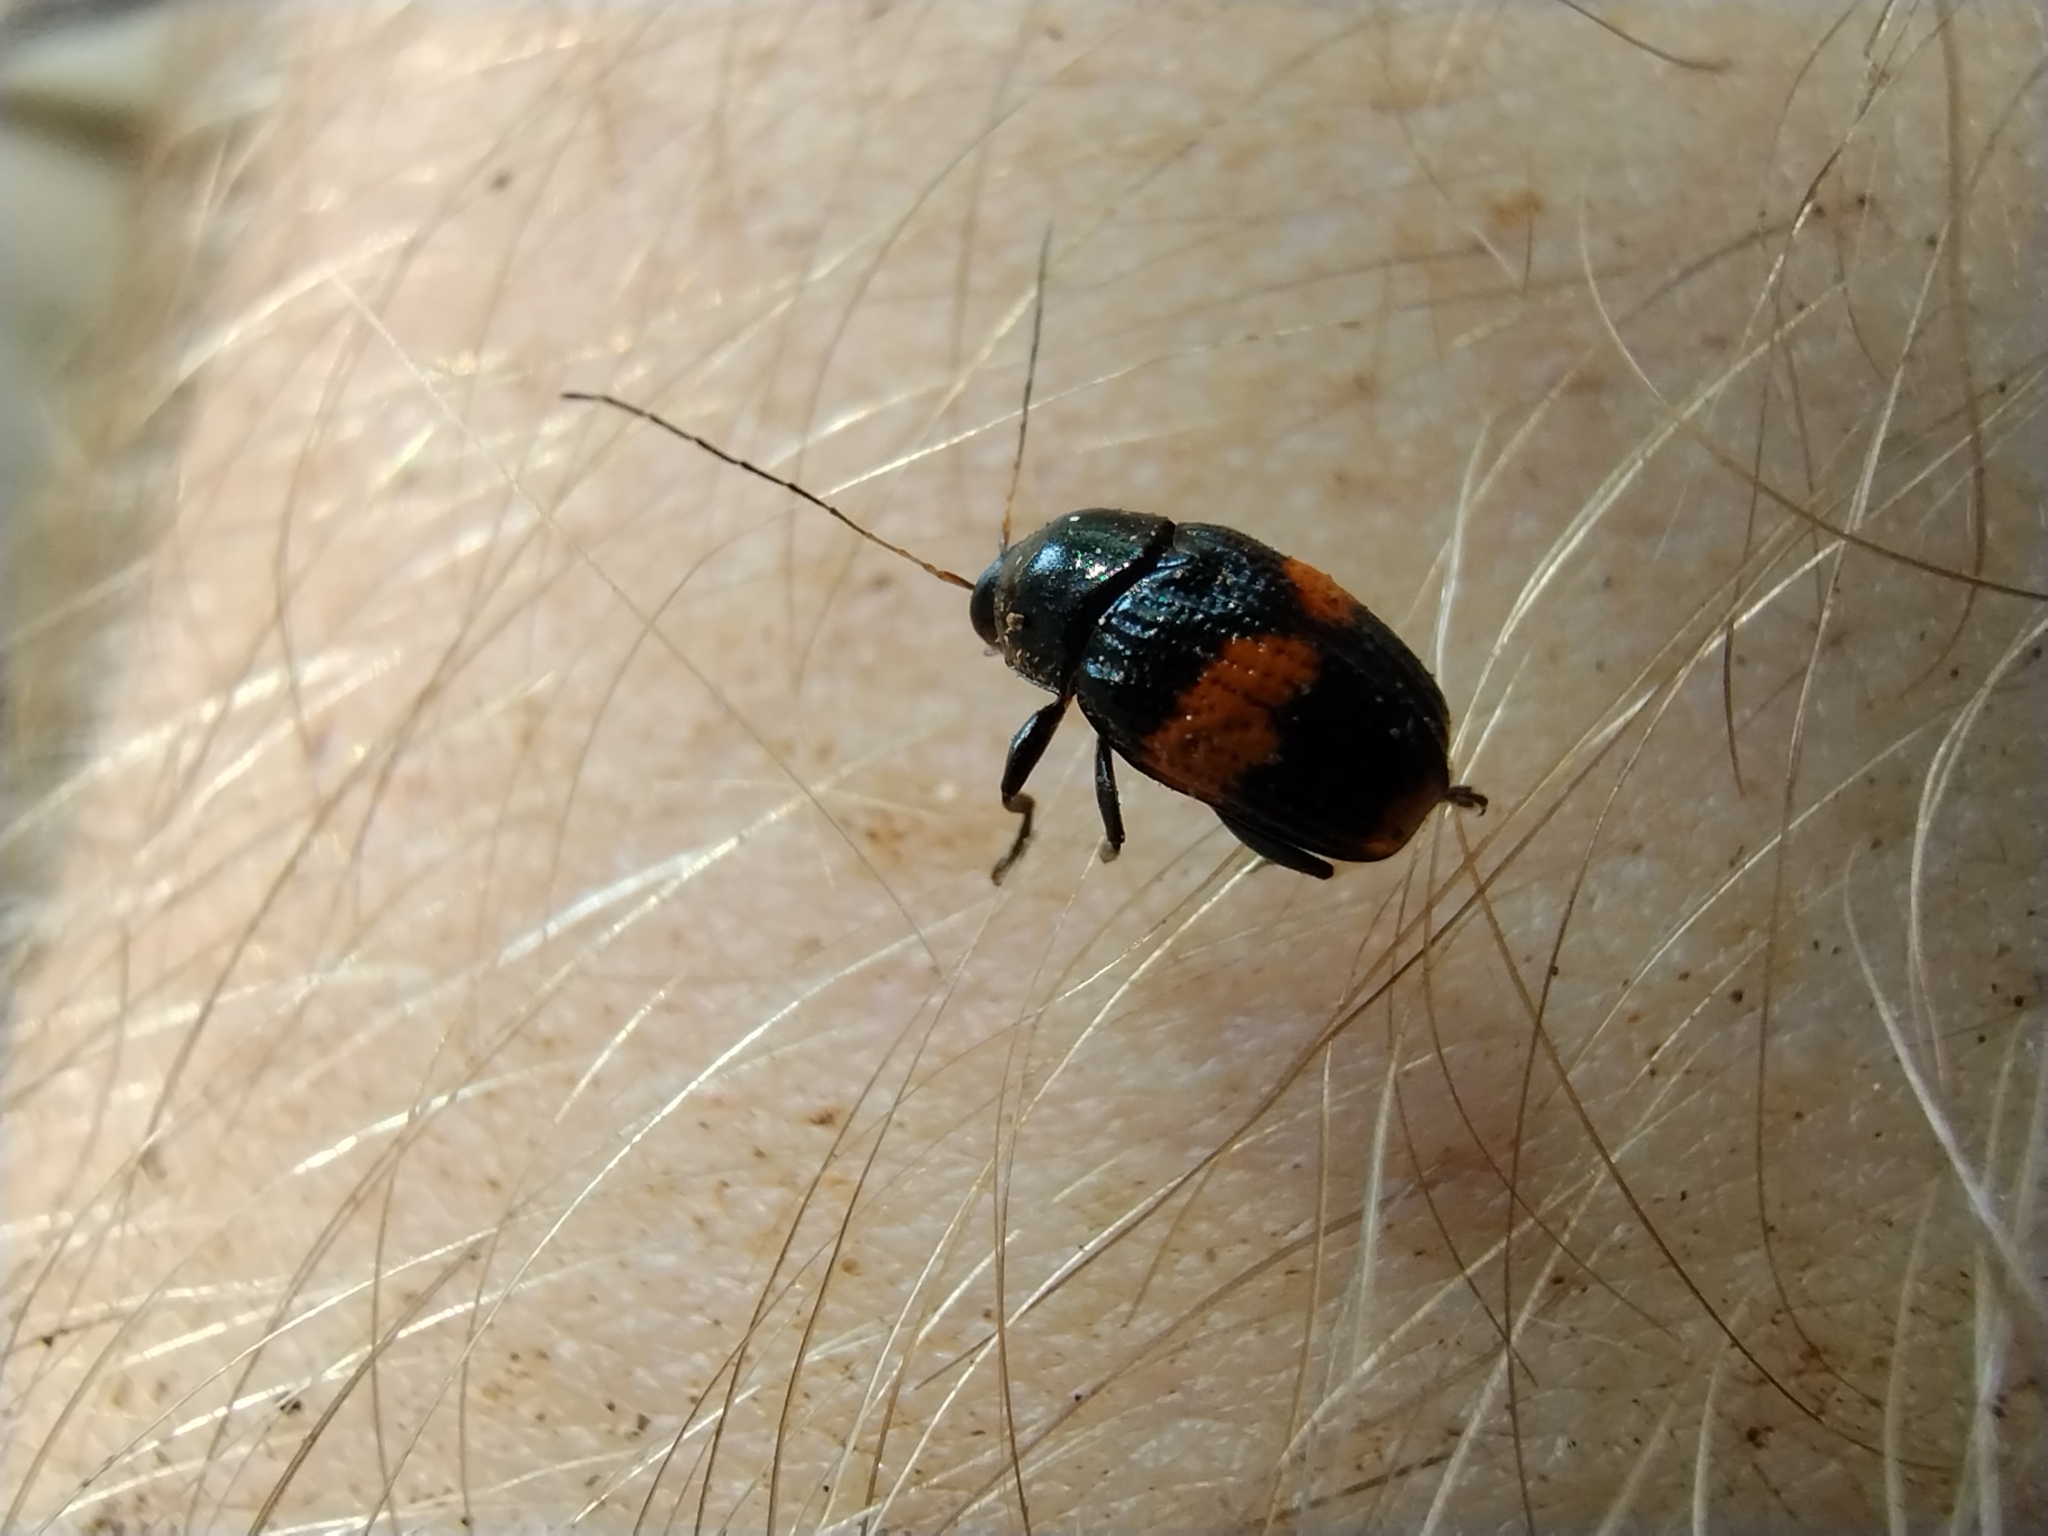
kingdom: Animalia
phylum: Arthropoda
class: Insecta
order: Coleoptera
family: Chrysomelidae
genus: Bassareus
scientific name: Bassareus mammifer
